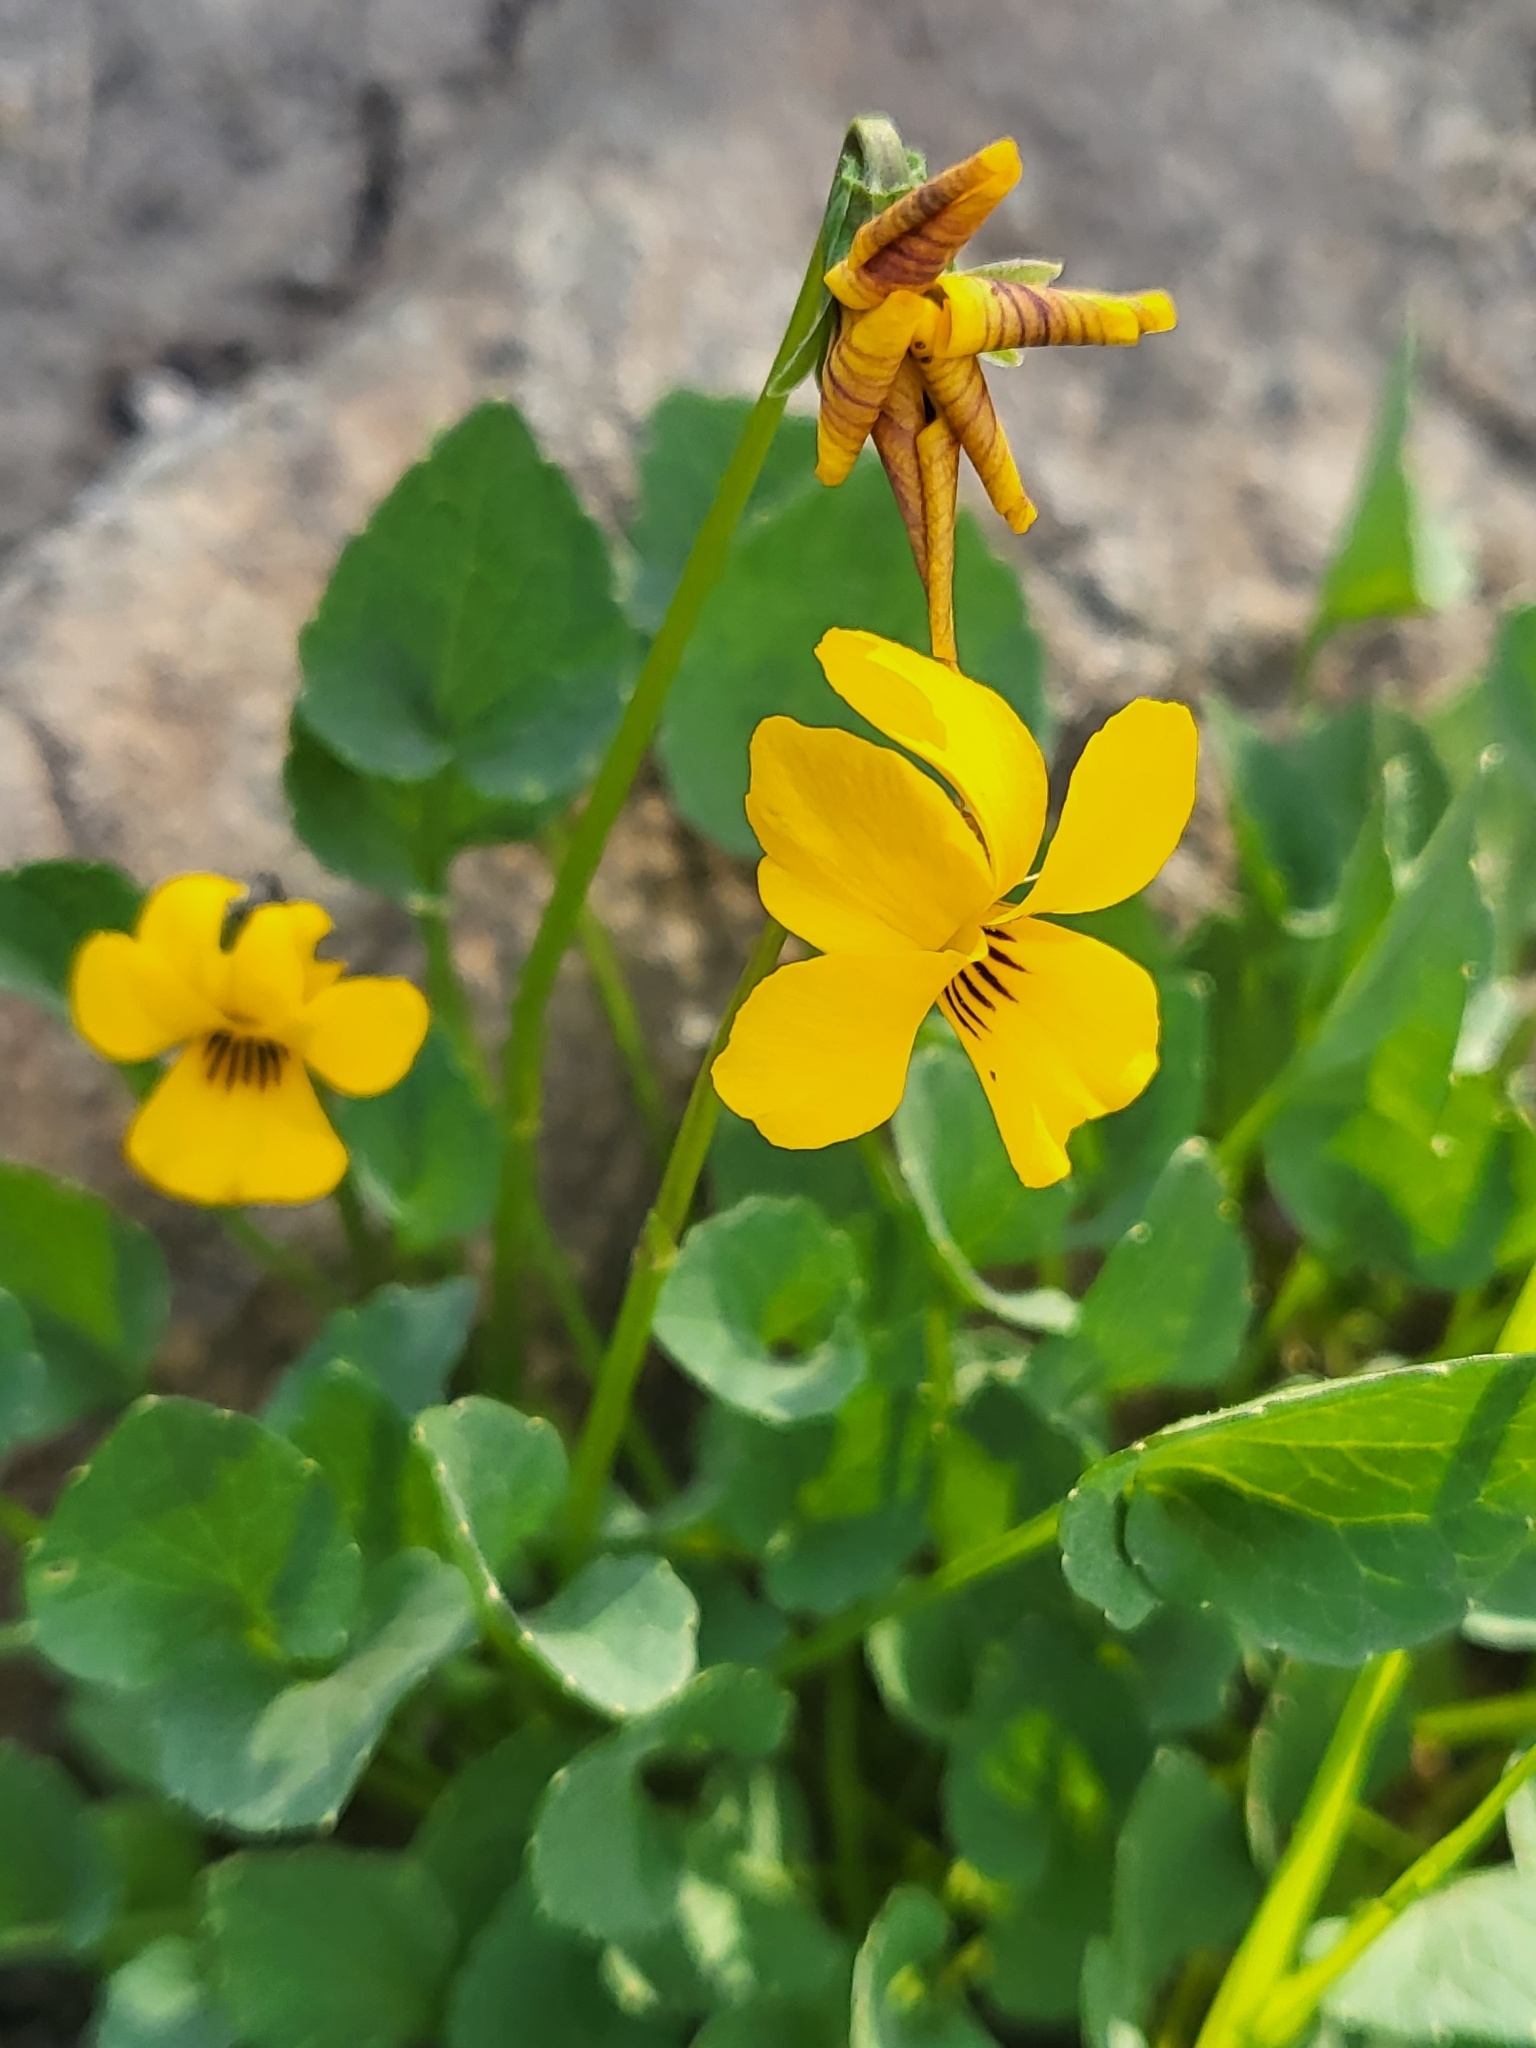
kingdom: Plantae
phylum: Tracheophyta
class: Magnoliopsida
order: Malpighiales
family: Violaceae
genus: Viola
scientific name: Viola pedunculata
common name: California golden violet
